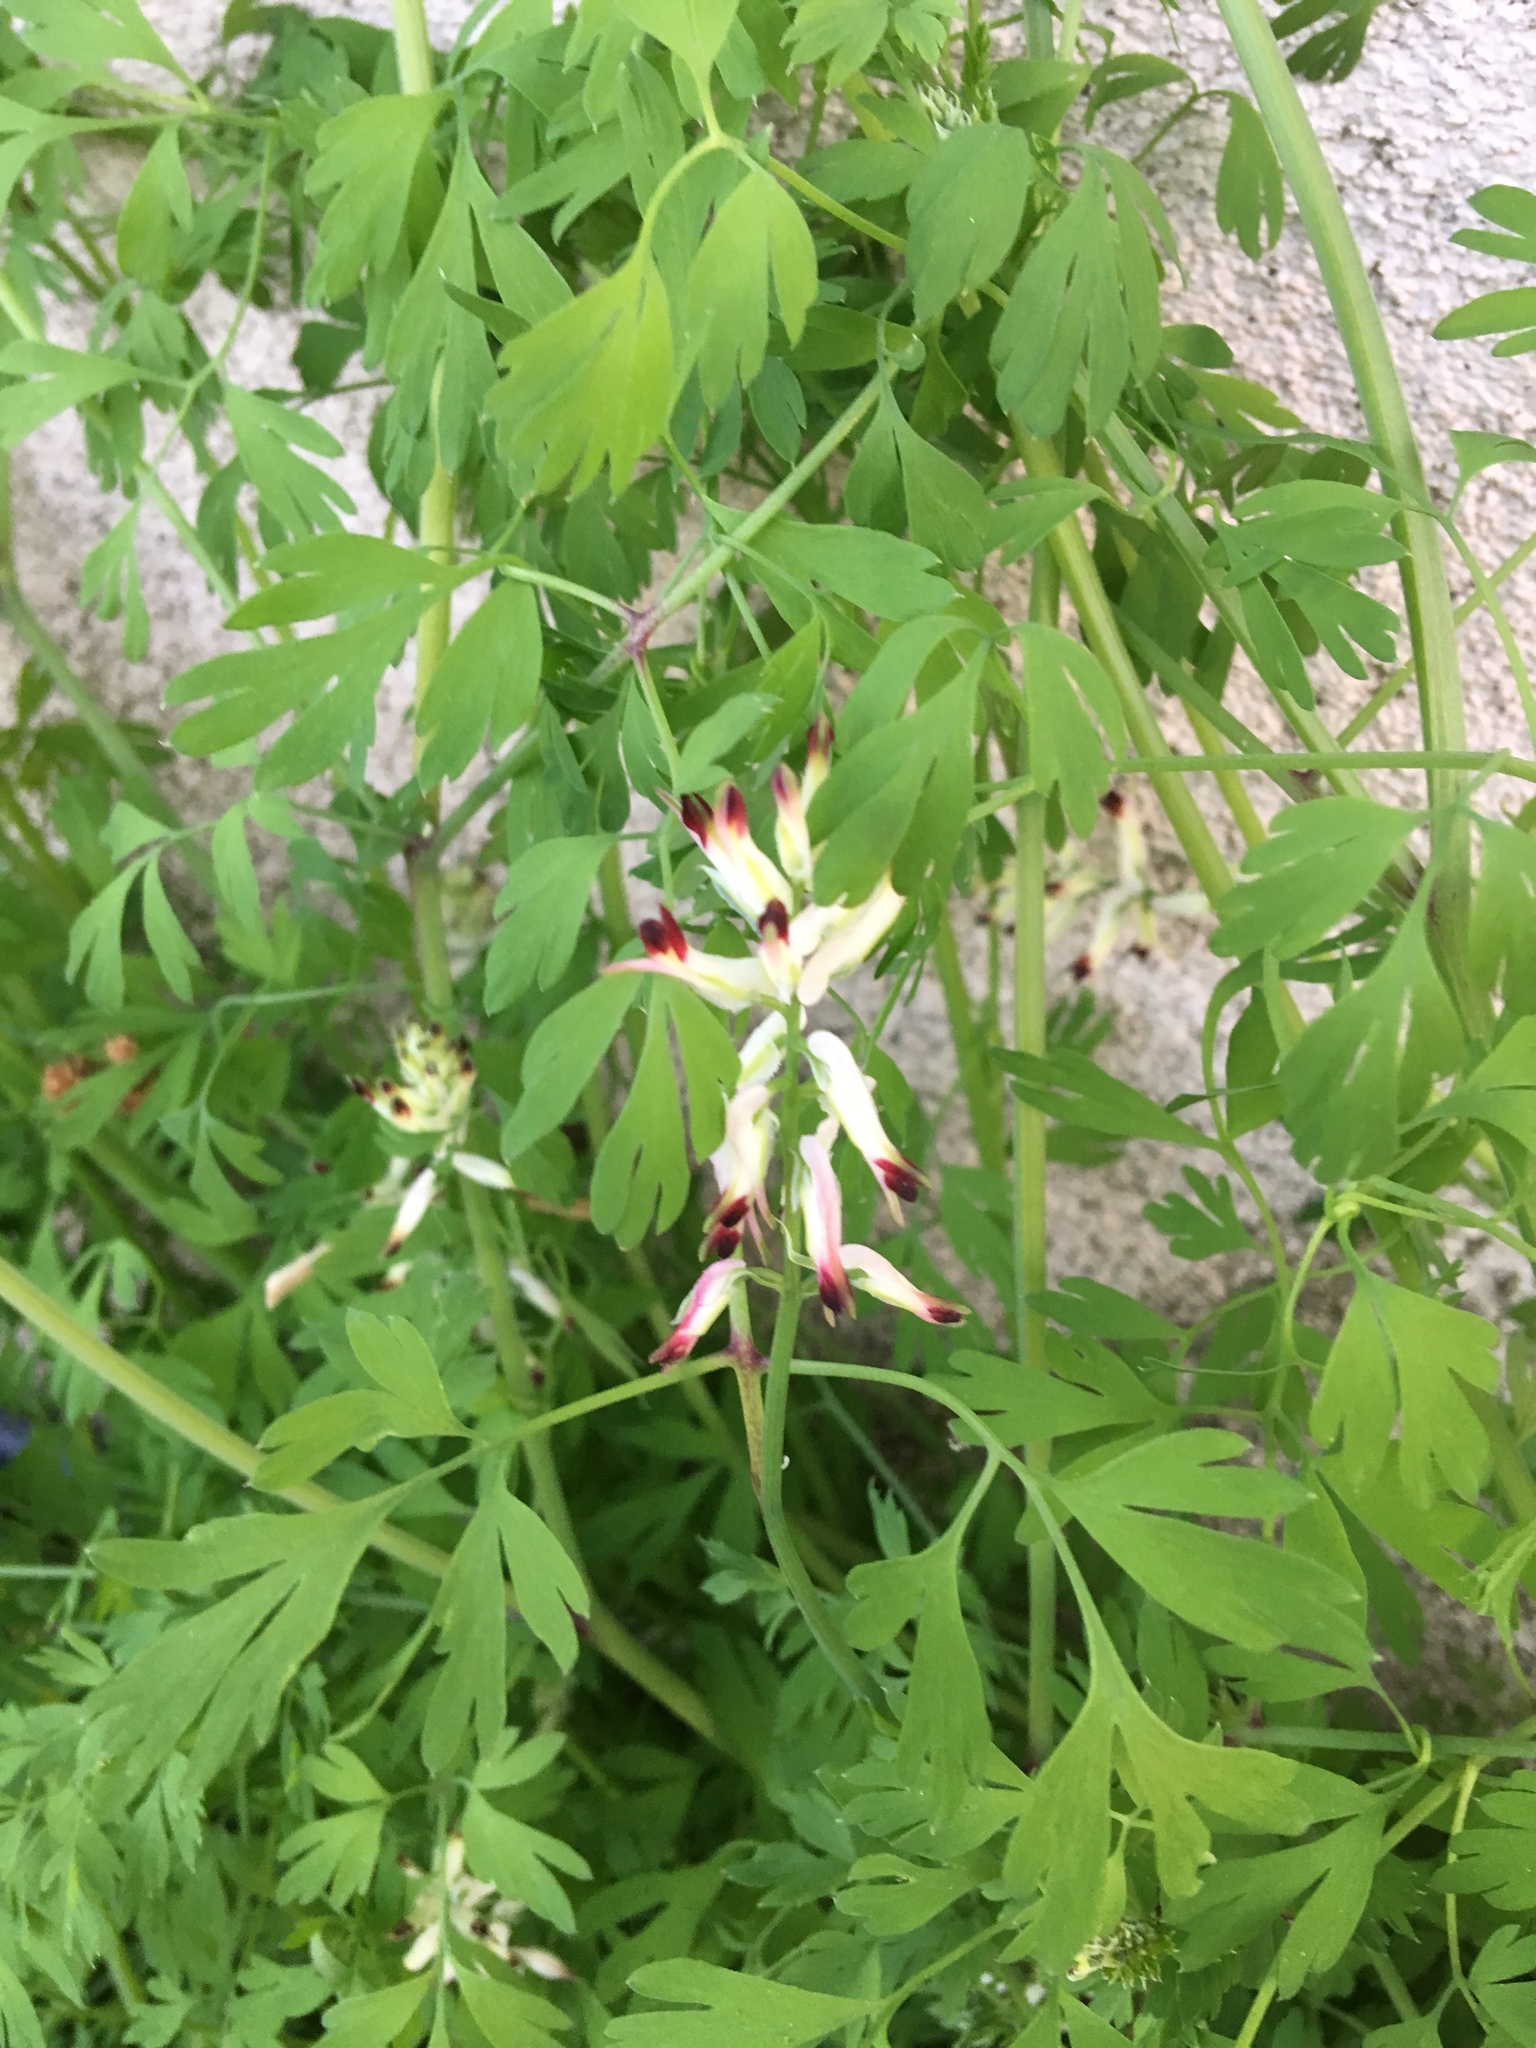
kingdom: Plantae
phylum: Tracheophyta
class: Magnoliopsida
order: Ranunculales
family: Papaveraceae
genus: Fumaria
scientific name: Fumaria capreolata
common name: White ramping-fumitory
